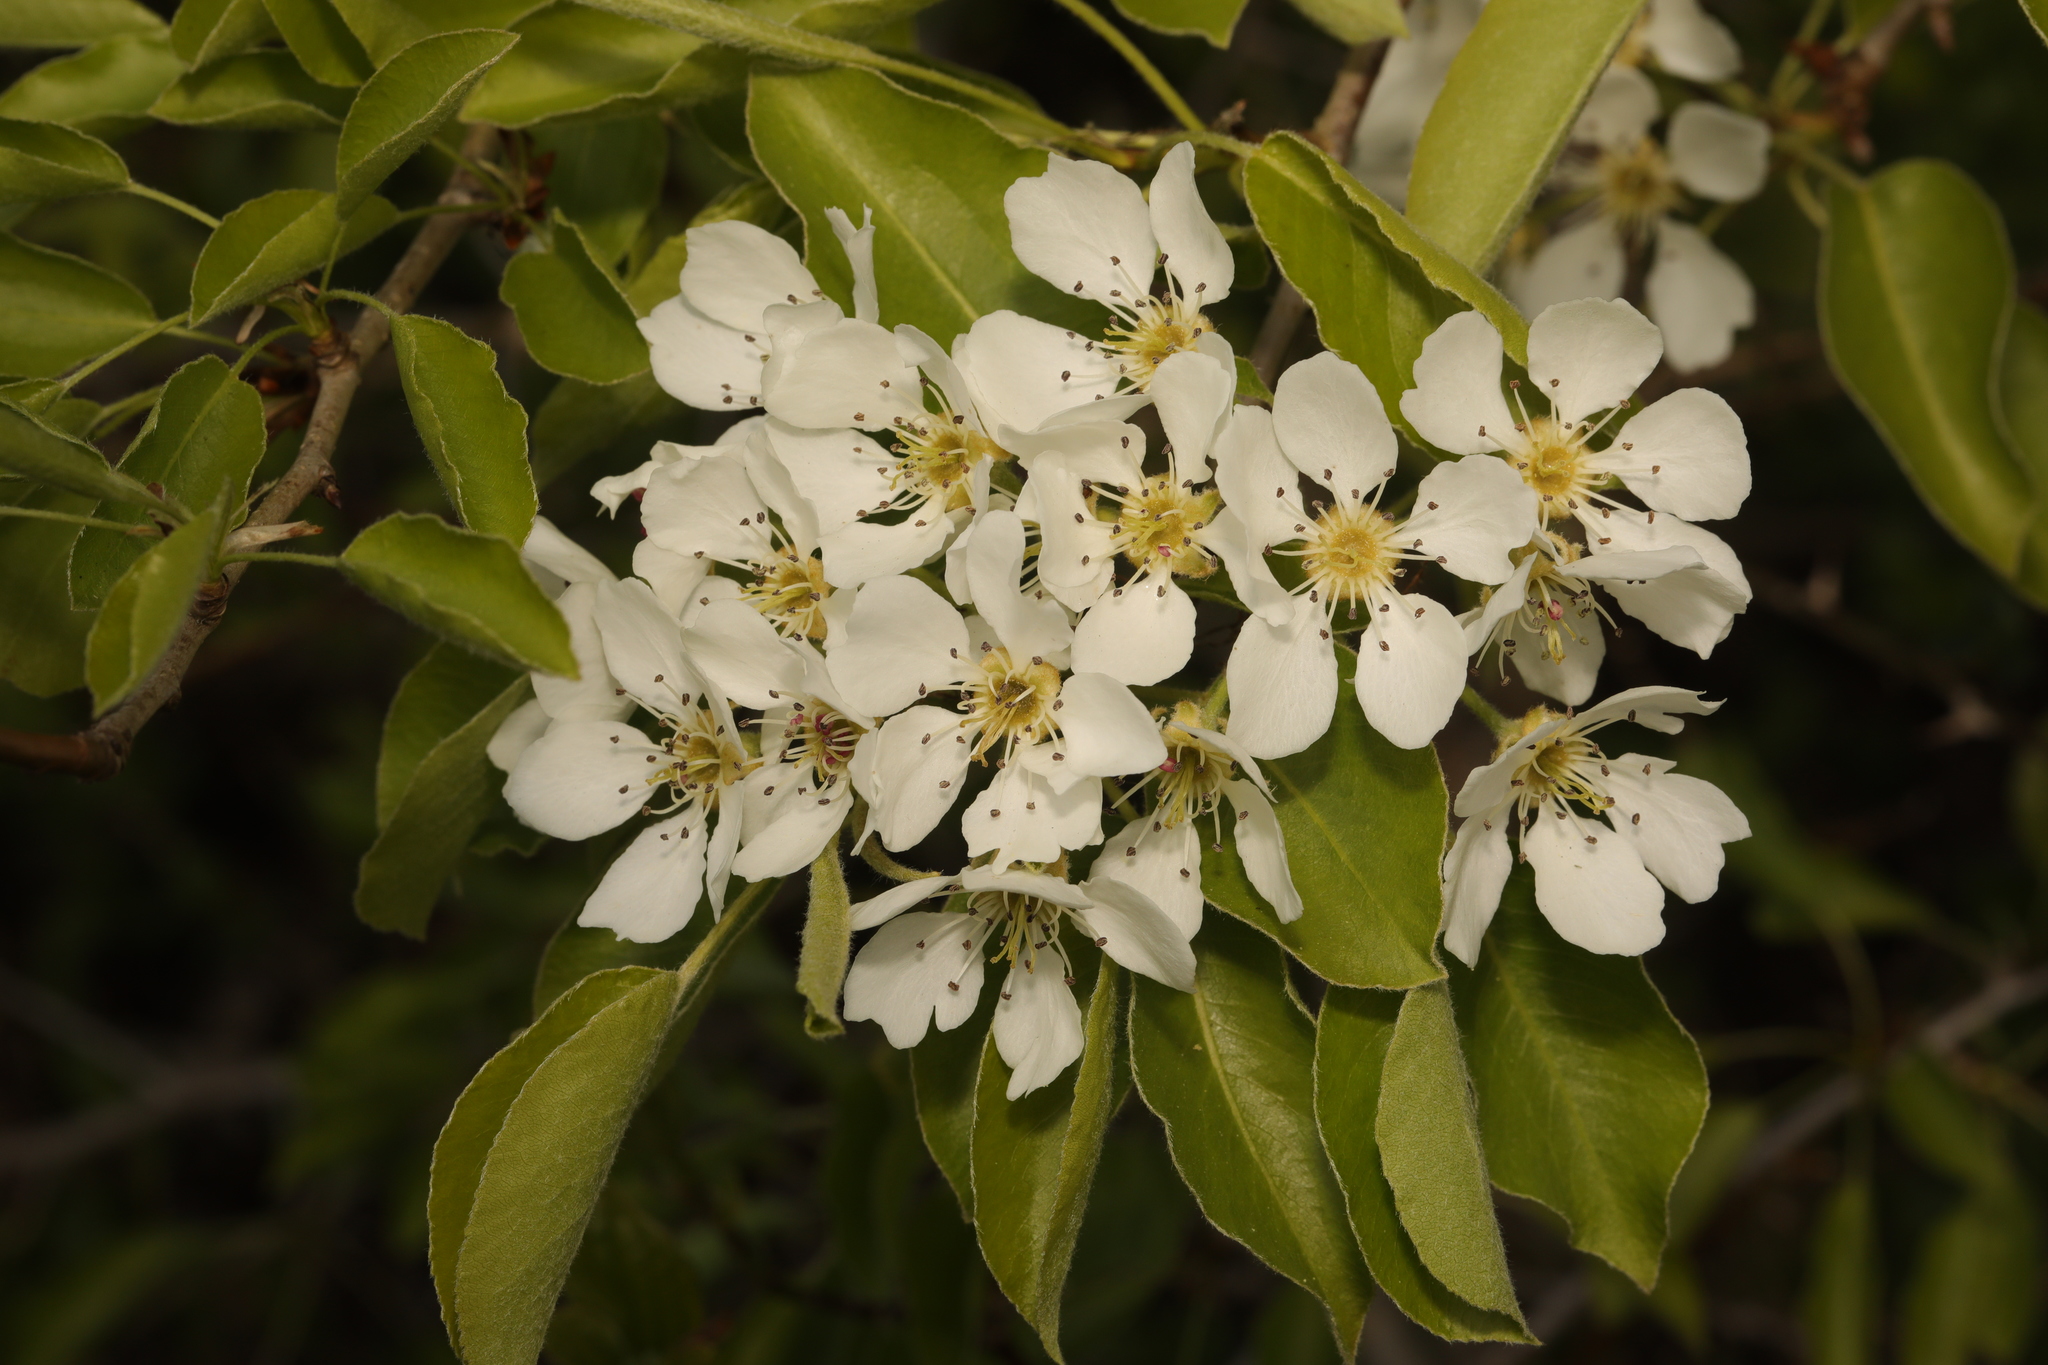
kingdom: Plantae
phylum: Tracheophyta
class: Magnoliopsida
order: Rosales
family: Rosaceae
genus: Pyrus
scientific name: Pyrus communis
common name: Pear
